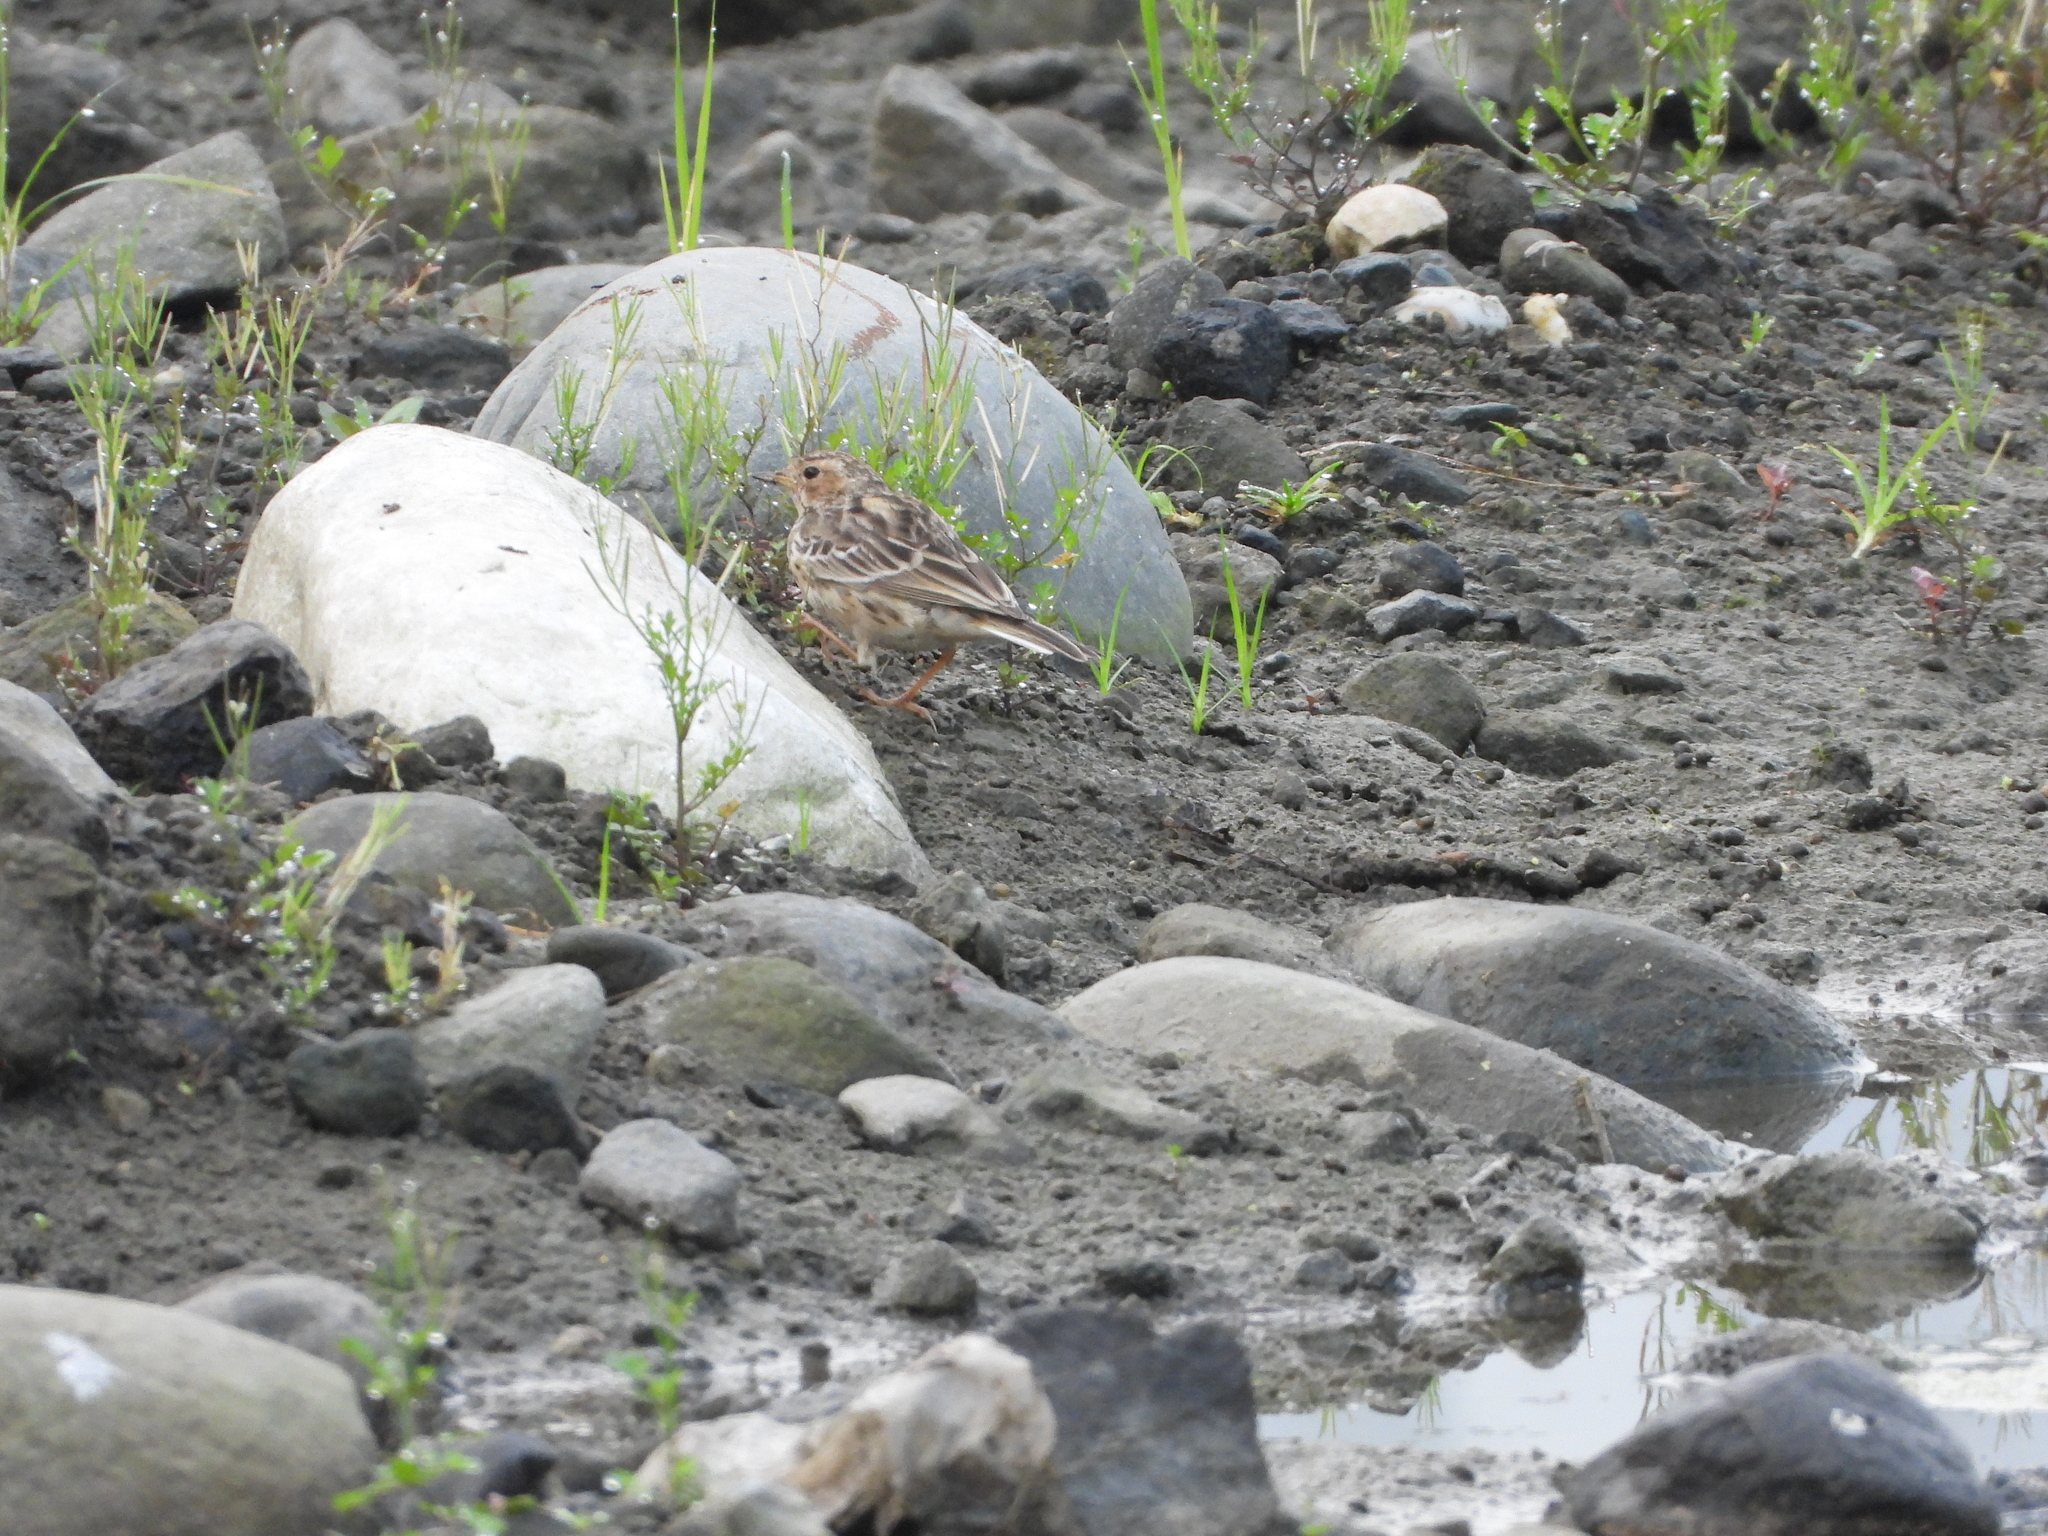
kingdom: Animalia
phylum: Chordata
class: Aves
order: Passeriformes
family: Motacillidae
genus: Anthus
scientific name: Anthus cervinus
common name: Red-throated pipit
